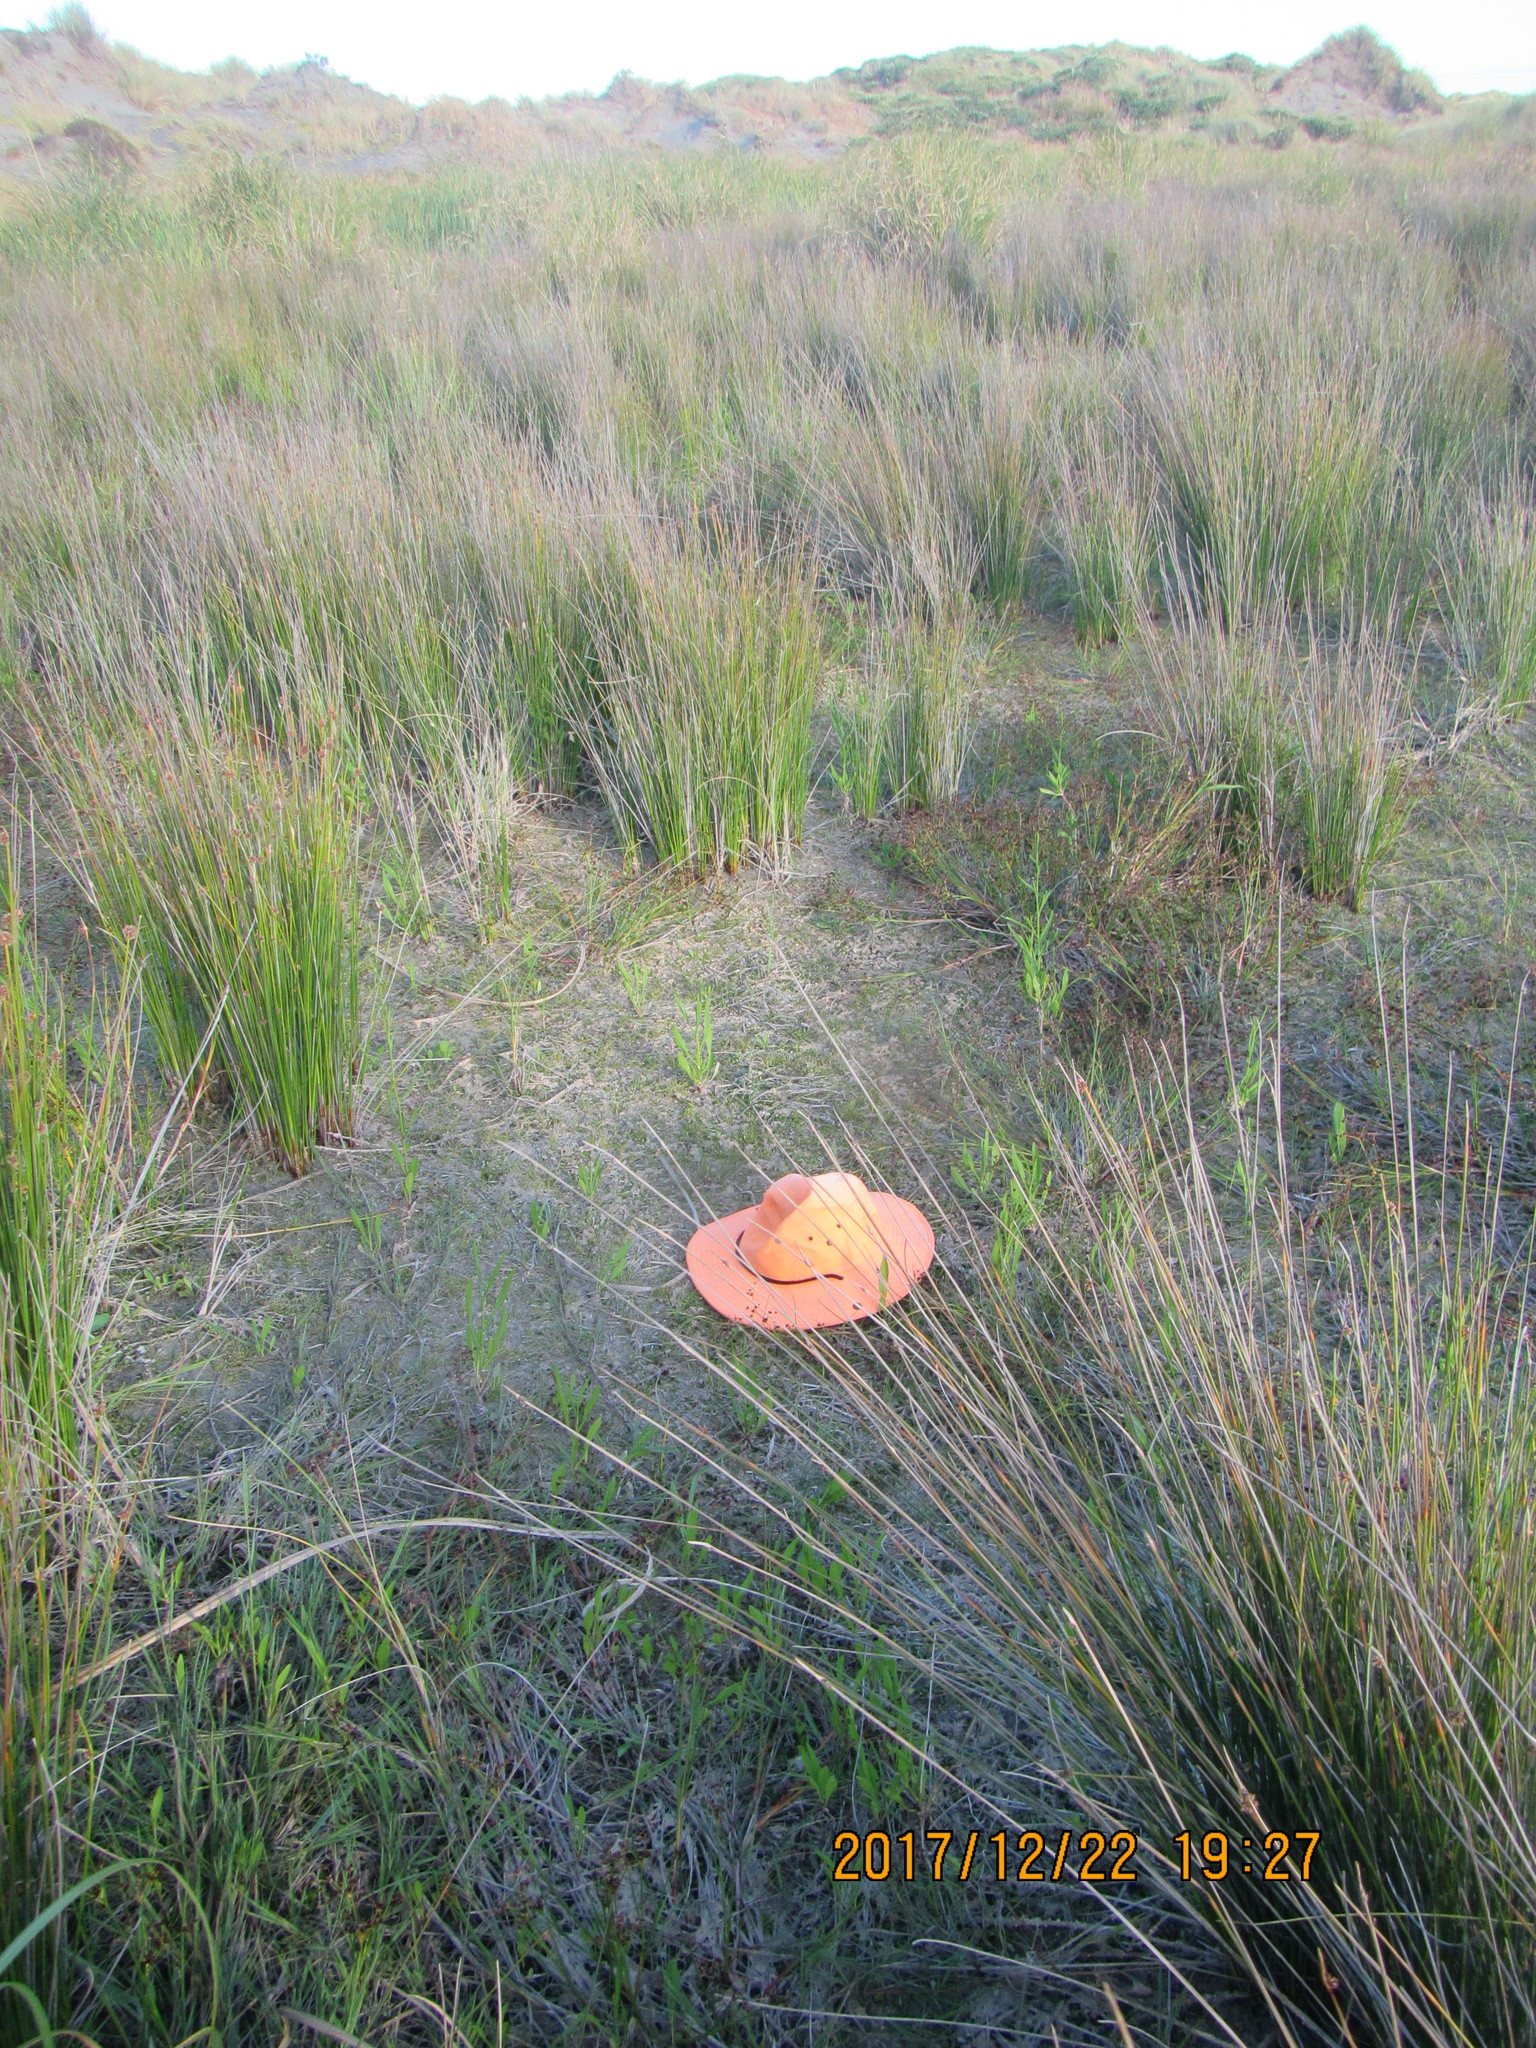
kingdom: Plantae
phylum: Tracheophyta
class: Magnoliopsida
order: Asterales
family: Goodeniaceae
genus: Goodenia
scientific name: Goodenia heenanii
